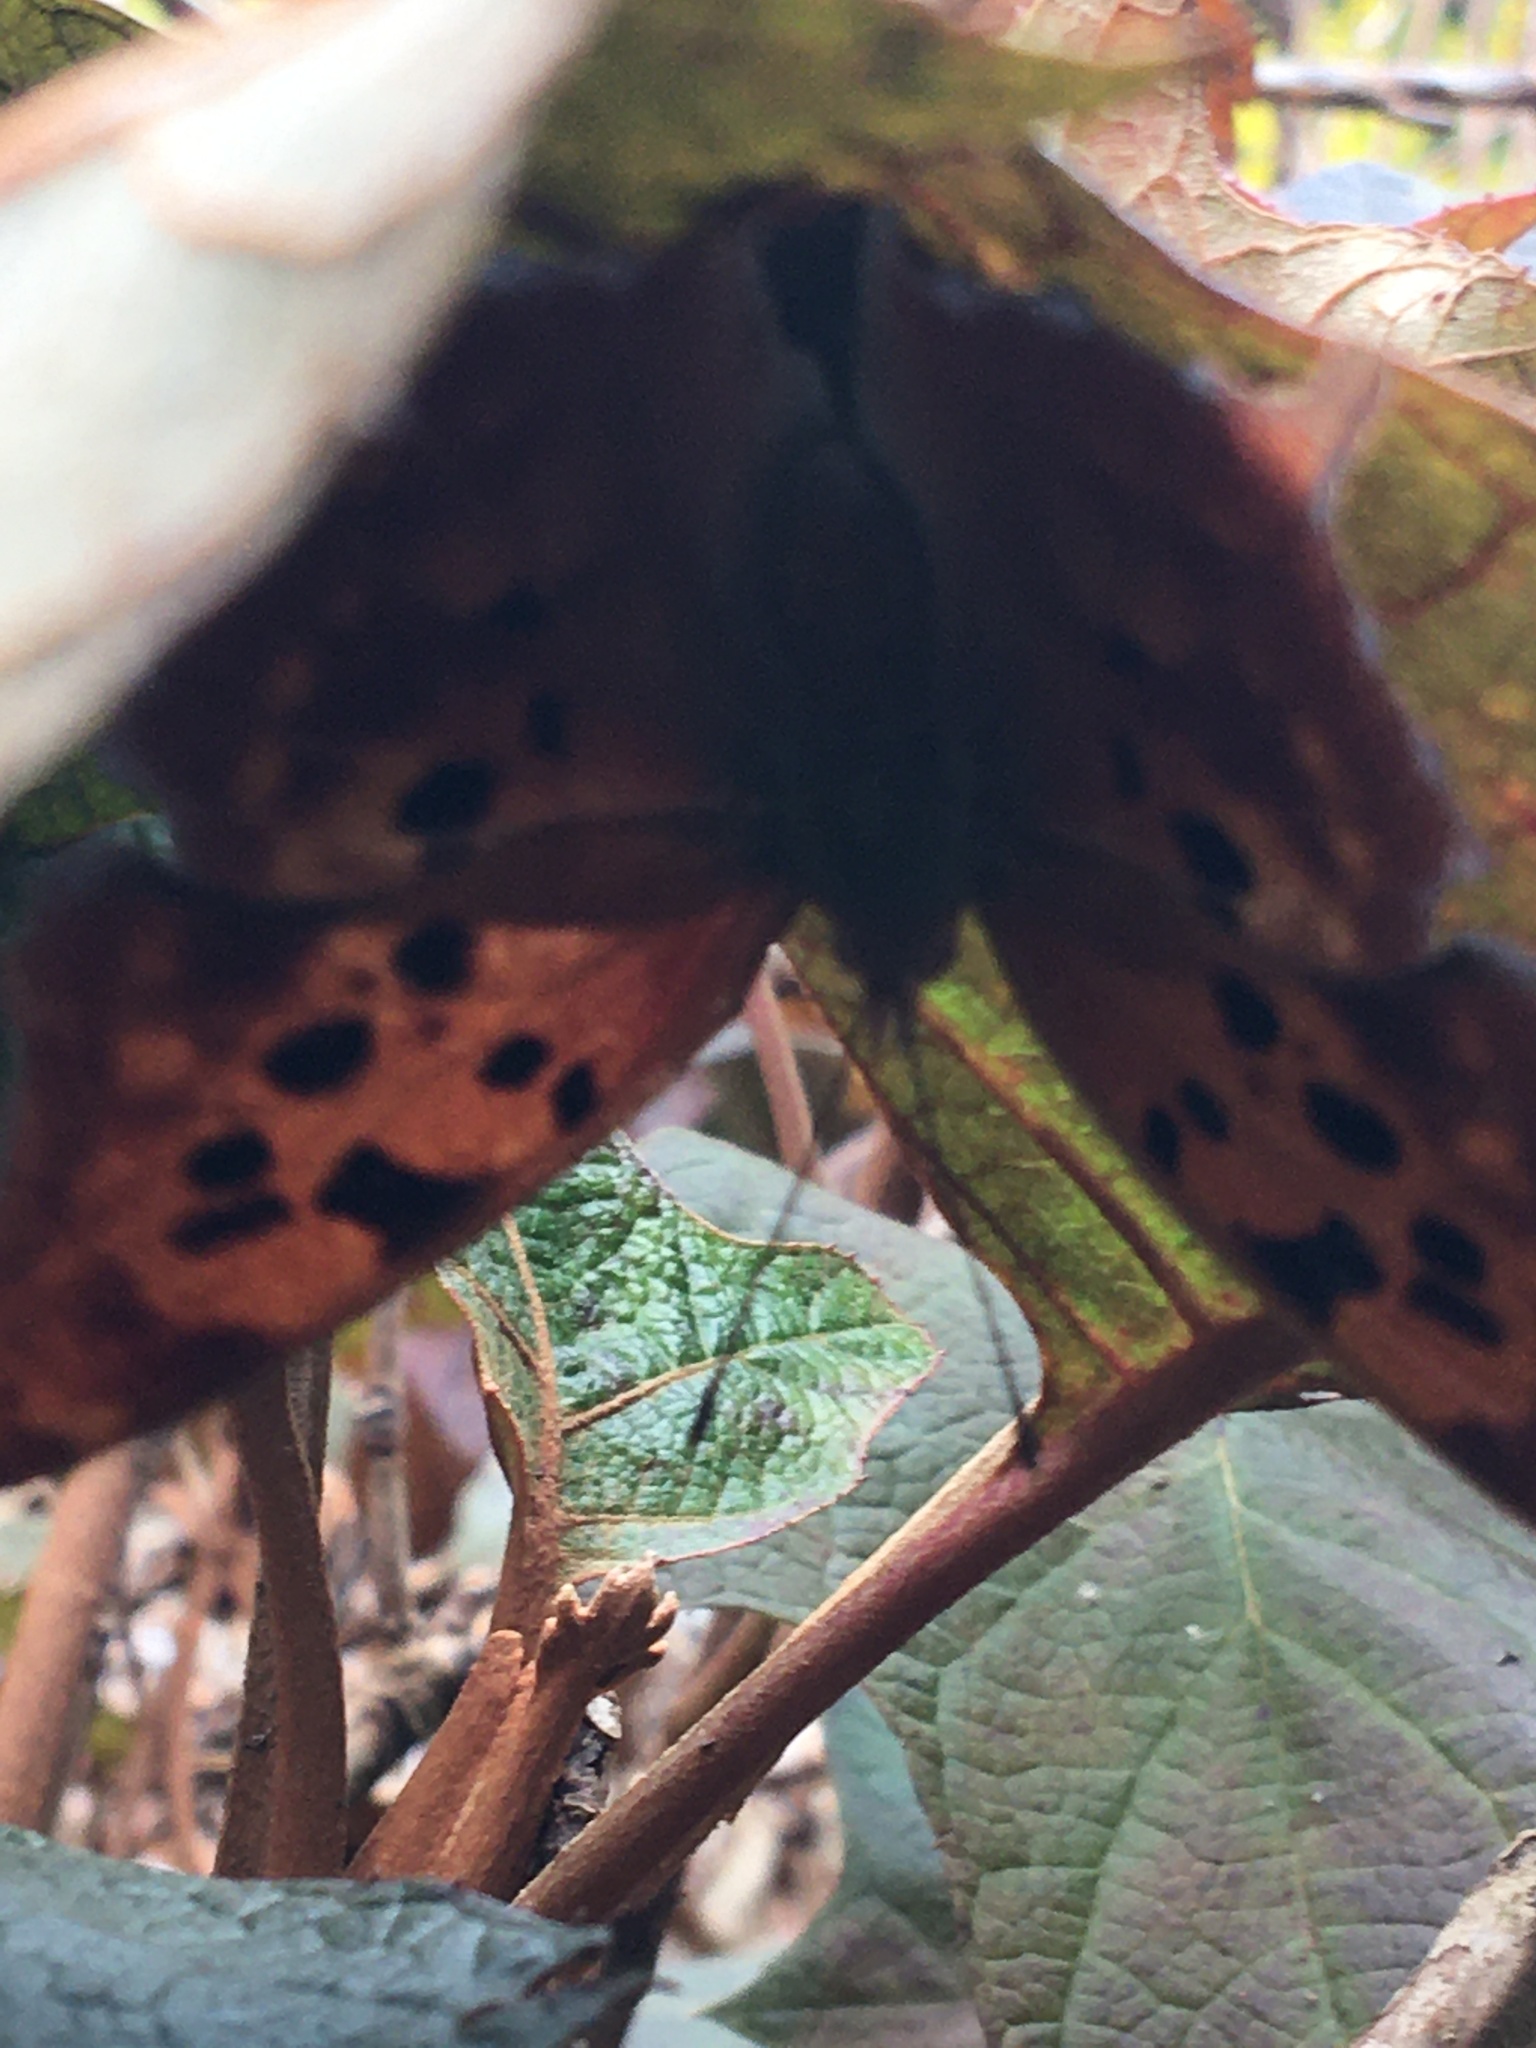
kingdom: Animalia
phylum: Arthropoda
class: Insecta
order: Lepidoptera
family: Nymphalidae
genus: Polygonia
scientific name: Polygonia interrogationis
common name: Question mark
